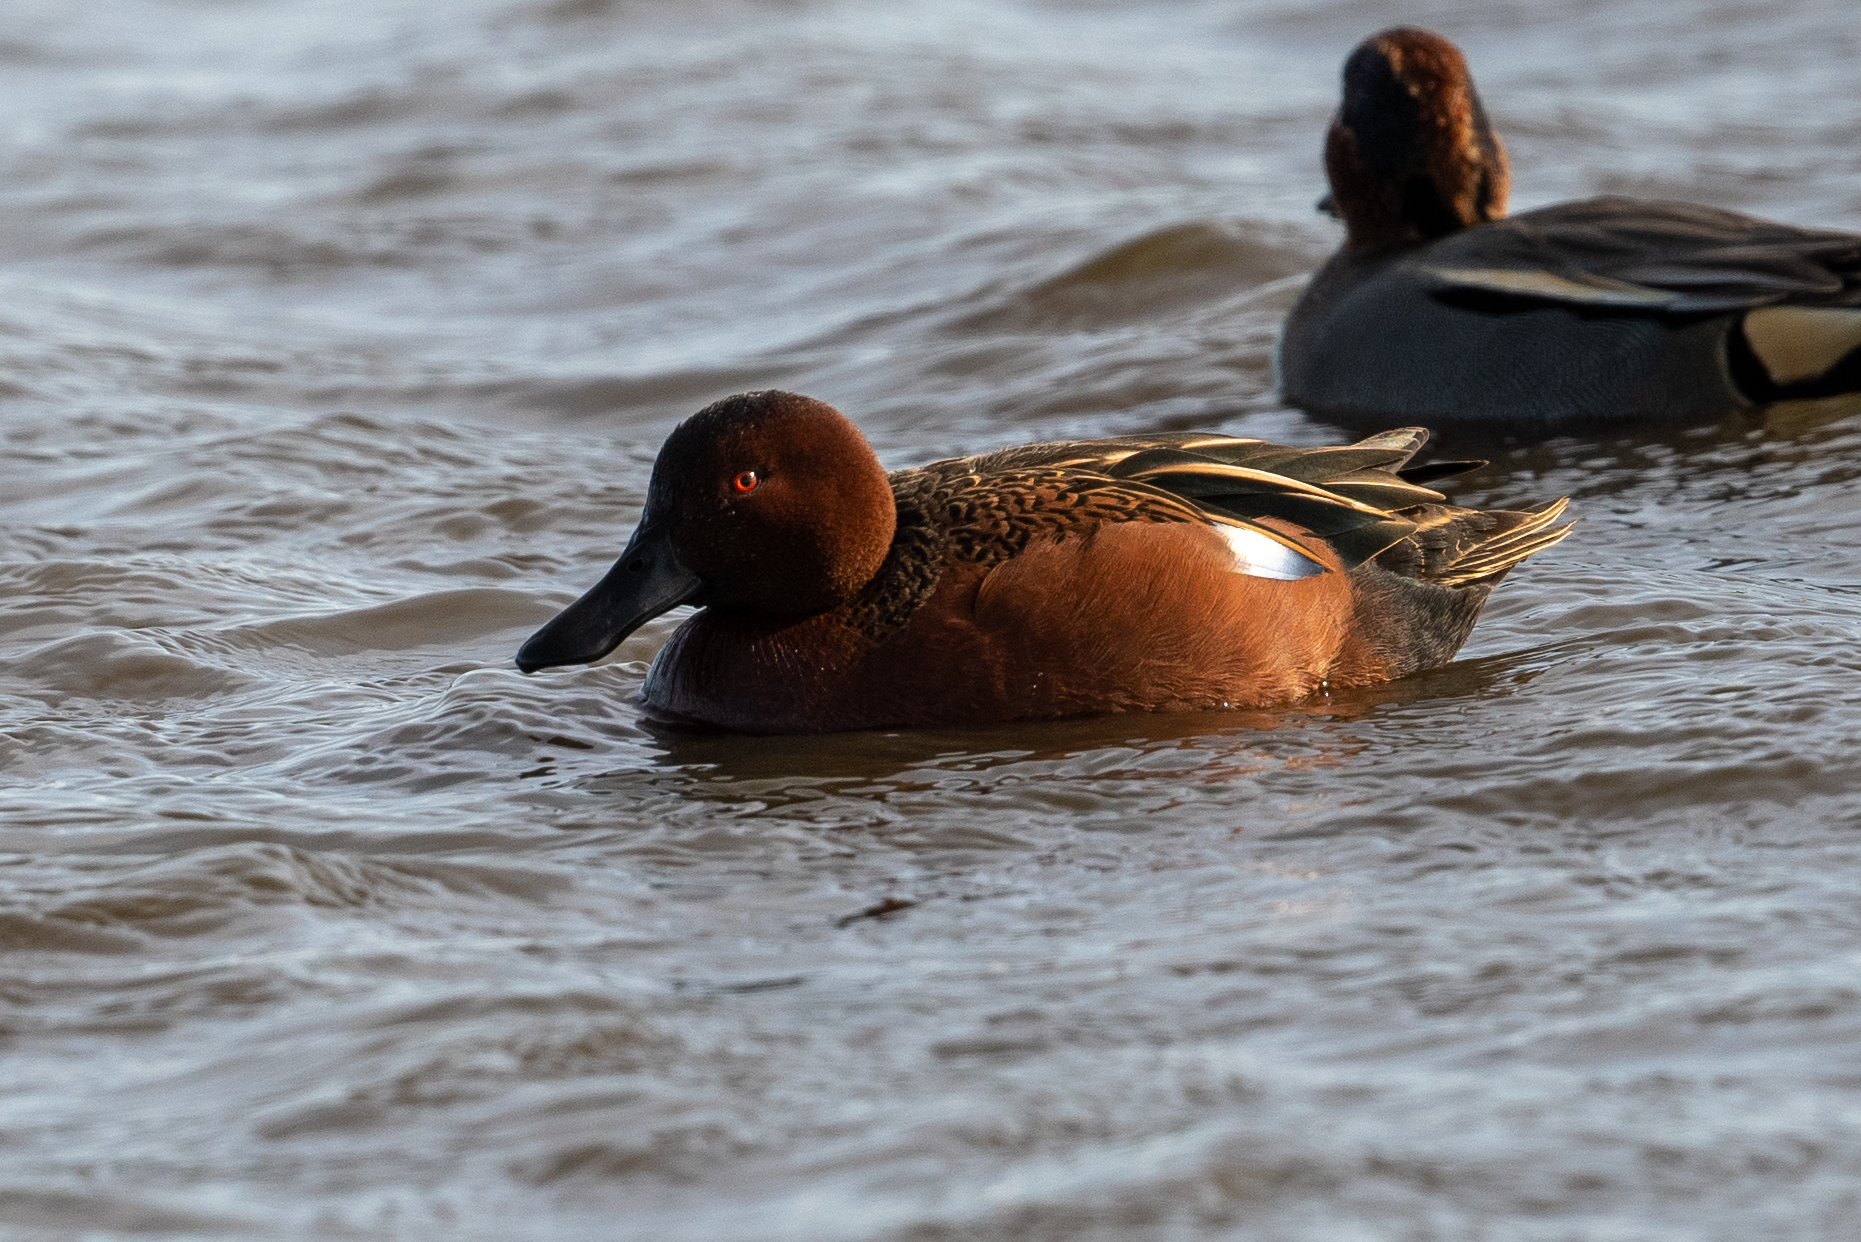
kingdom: Animalia
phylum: Chordata
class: Aves
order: Anseriformes
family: Anatidae
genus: Spatula
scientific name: Spatula cyanoptera
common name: Cinnamon teal
